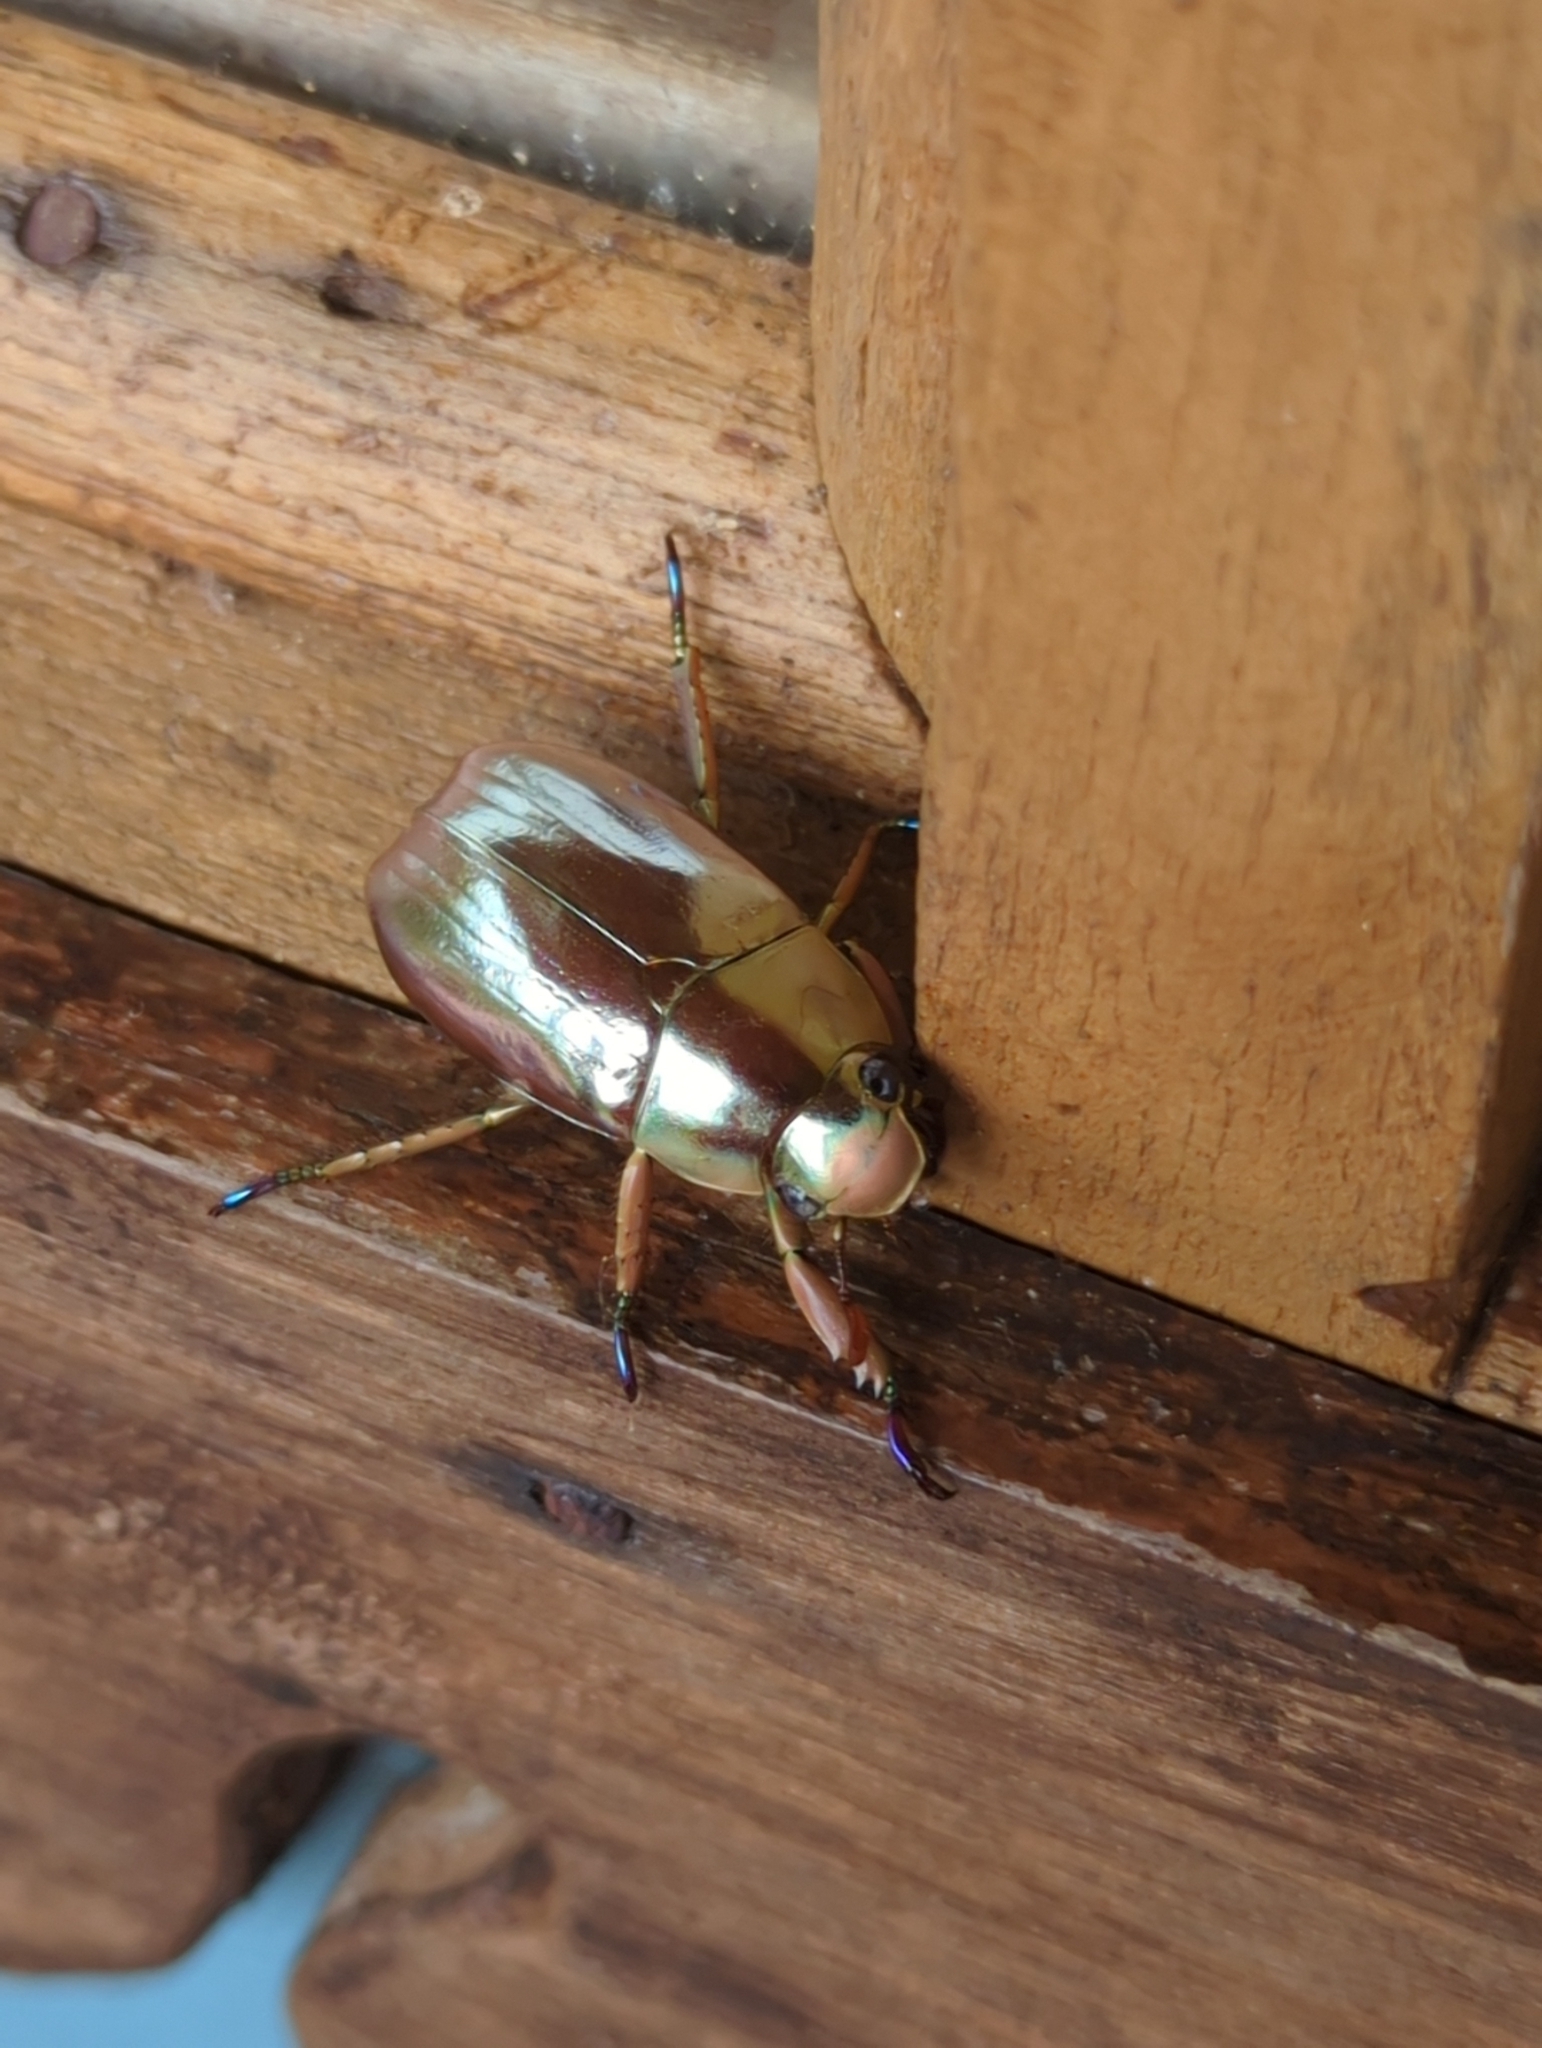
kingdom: Animalia
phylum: Arthropoda
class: Insecta
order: Coleoptera
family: Scarabaeidae
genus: Chrysina
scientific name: Chrysina chrysargyrea
